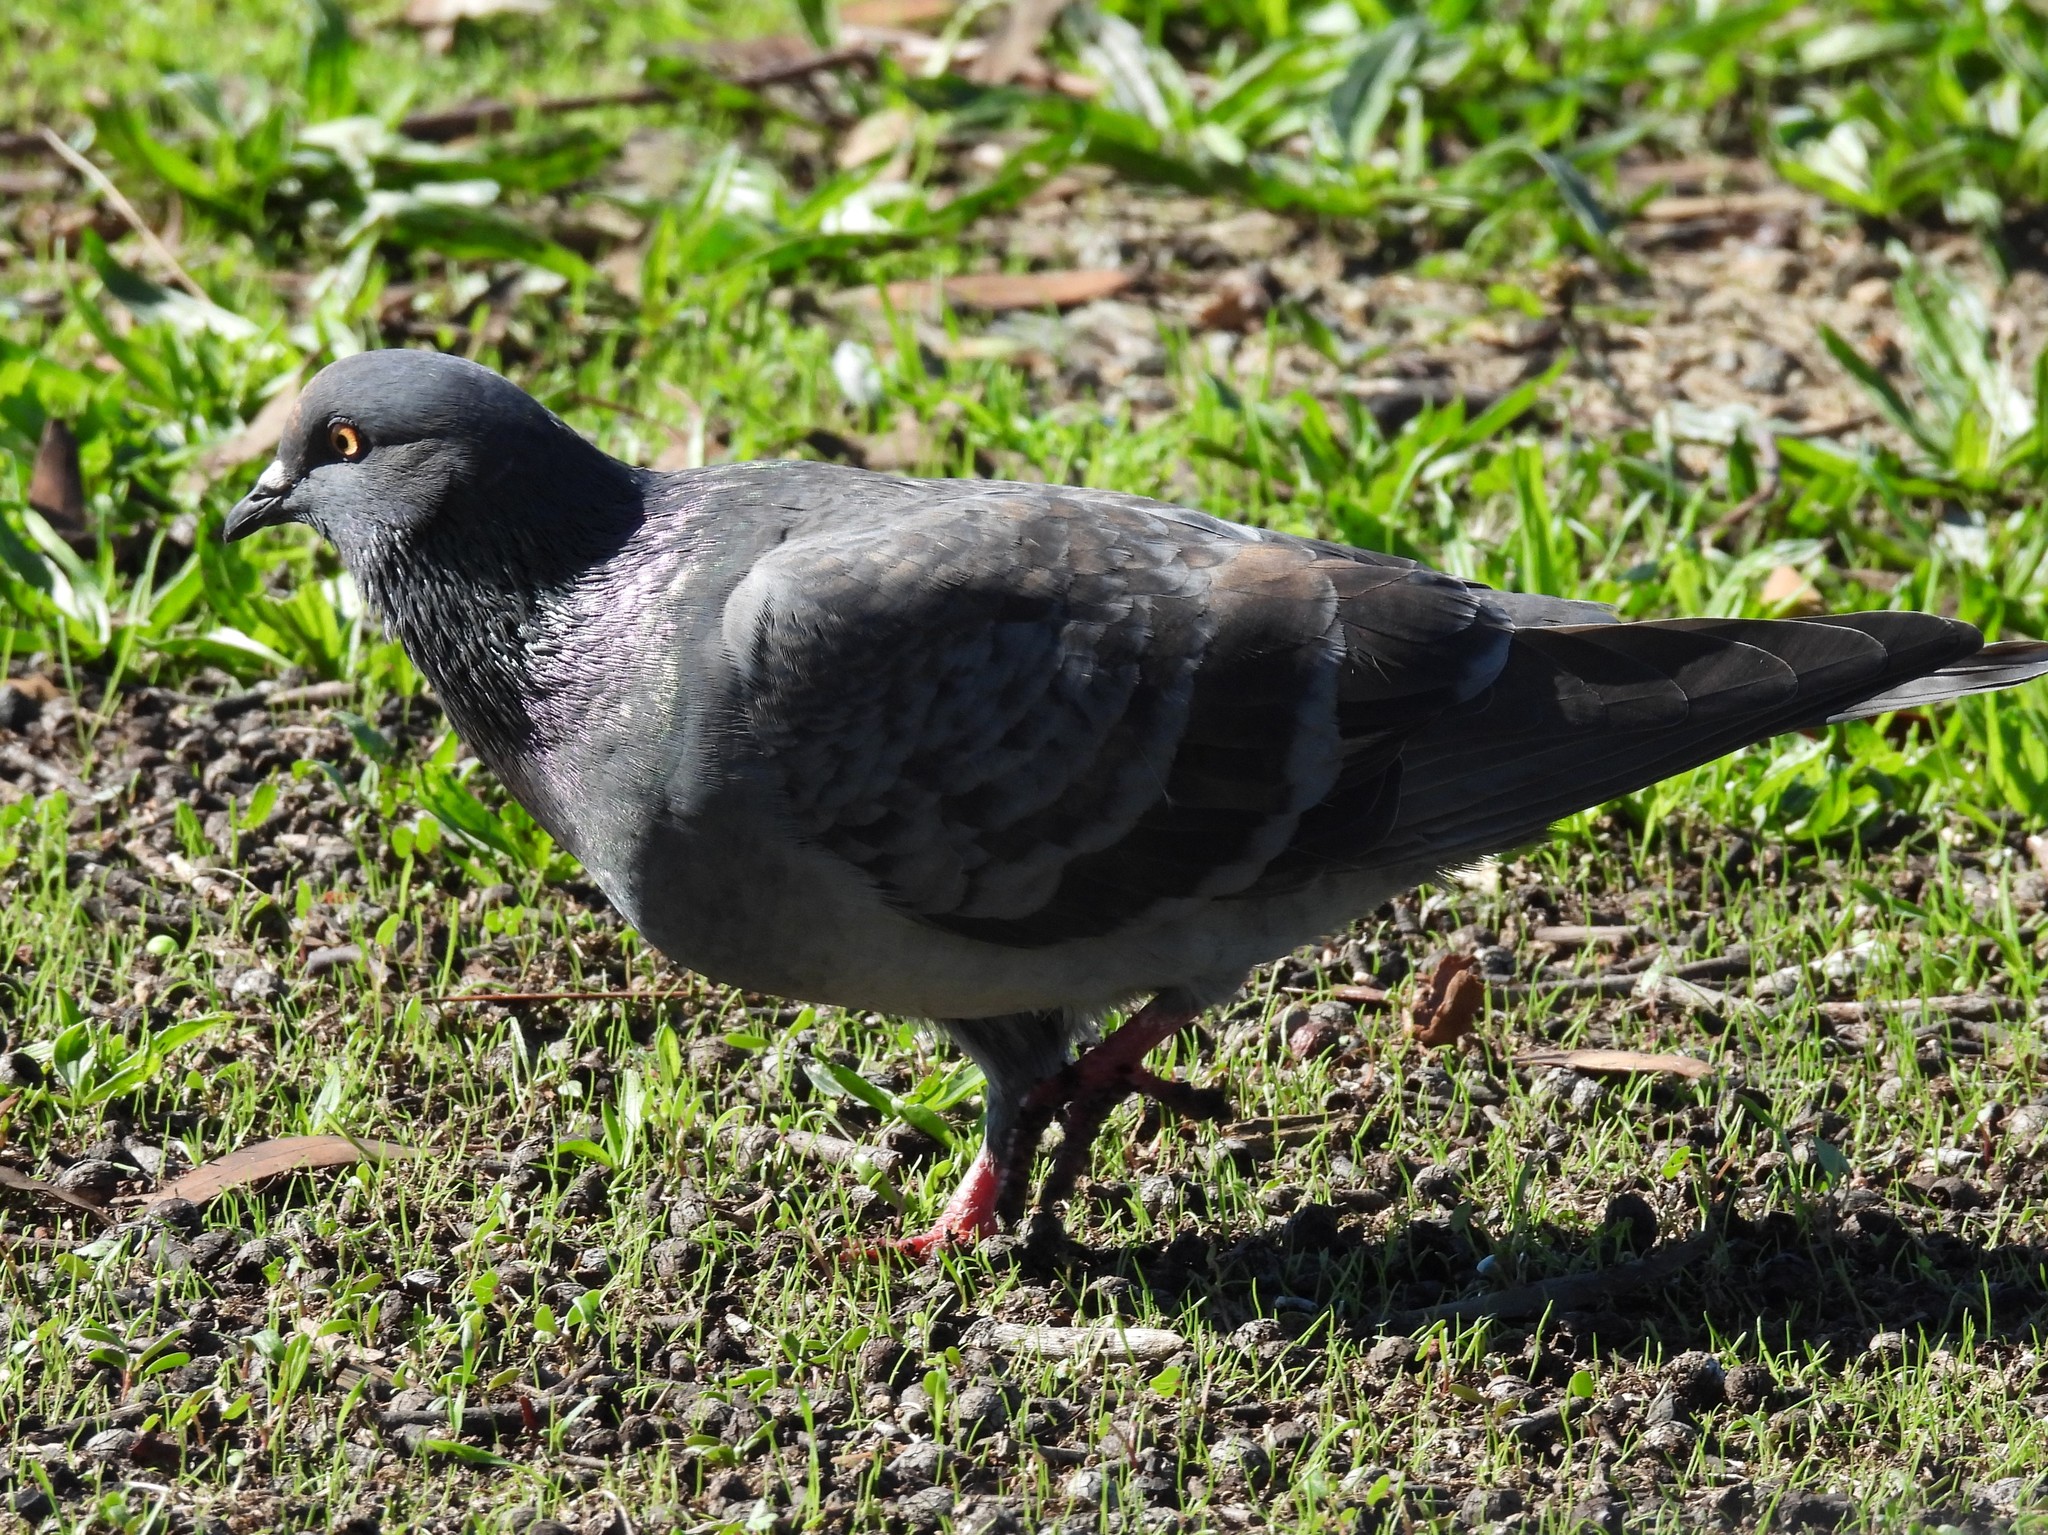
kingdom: Animalia
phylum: Chordata
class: Aves
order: Columbiformes
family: Columbidae
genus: Columba
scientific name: Columba livia
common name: Rock pigeon
